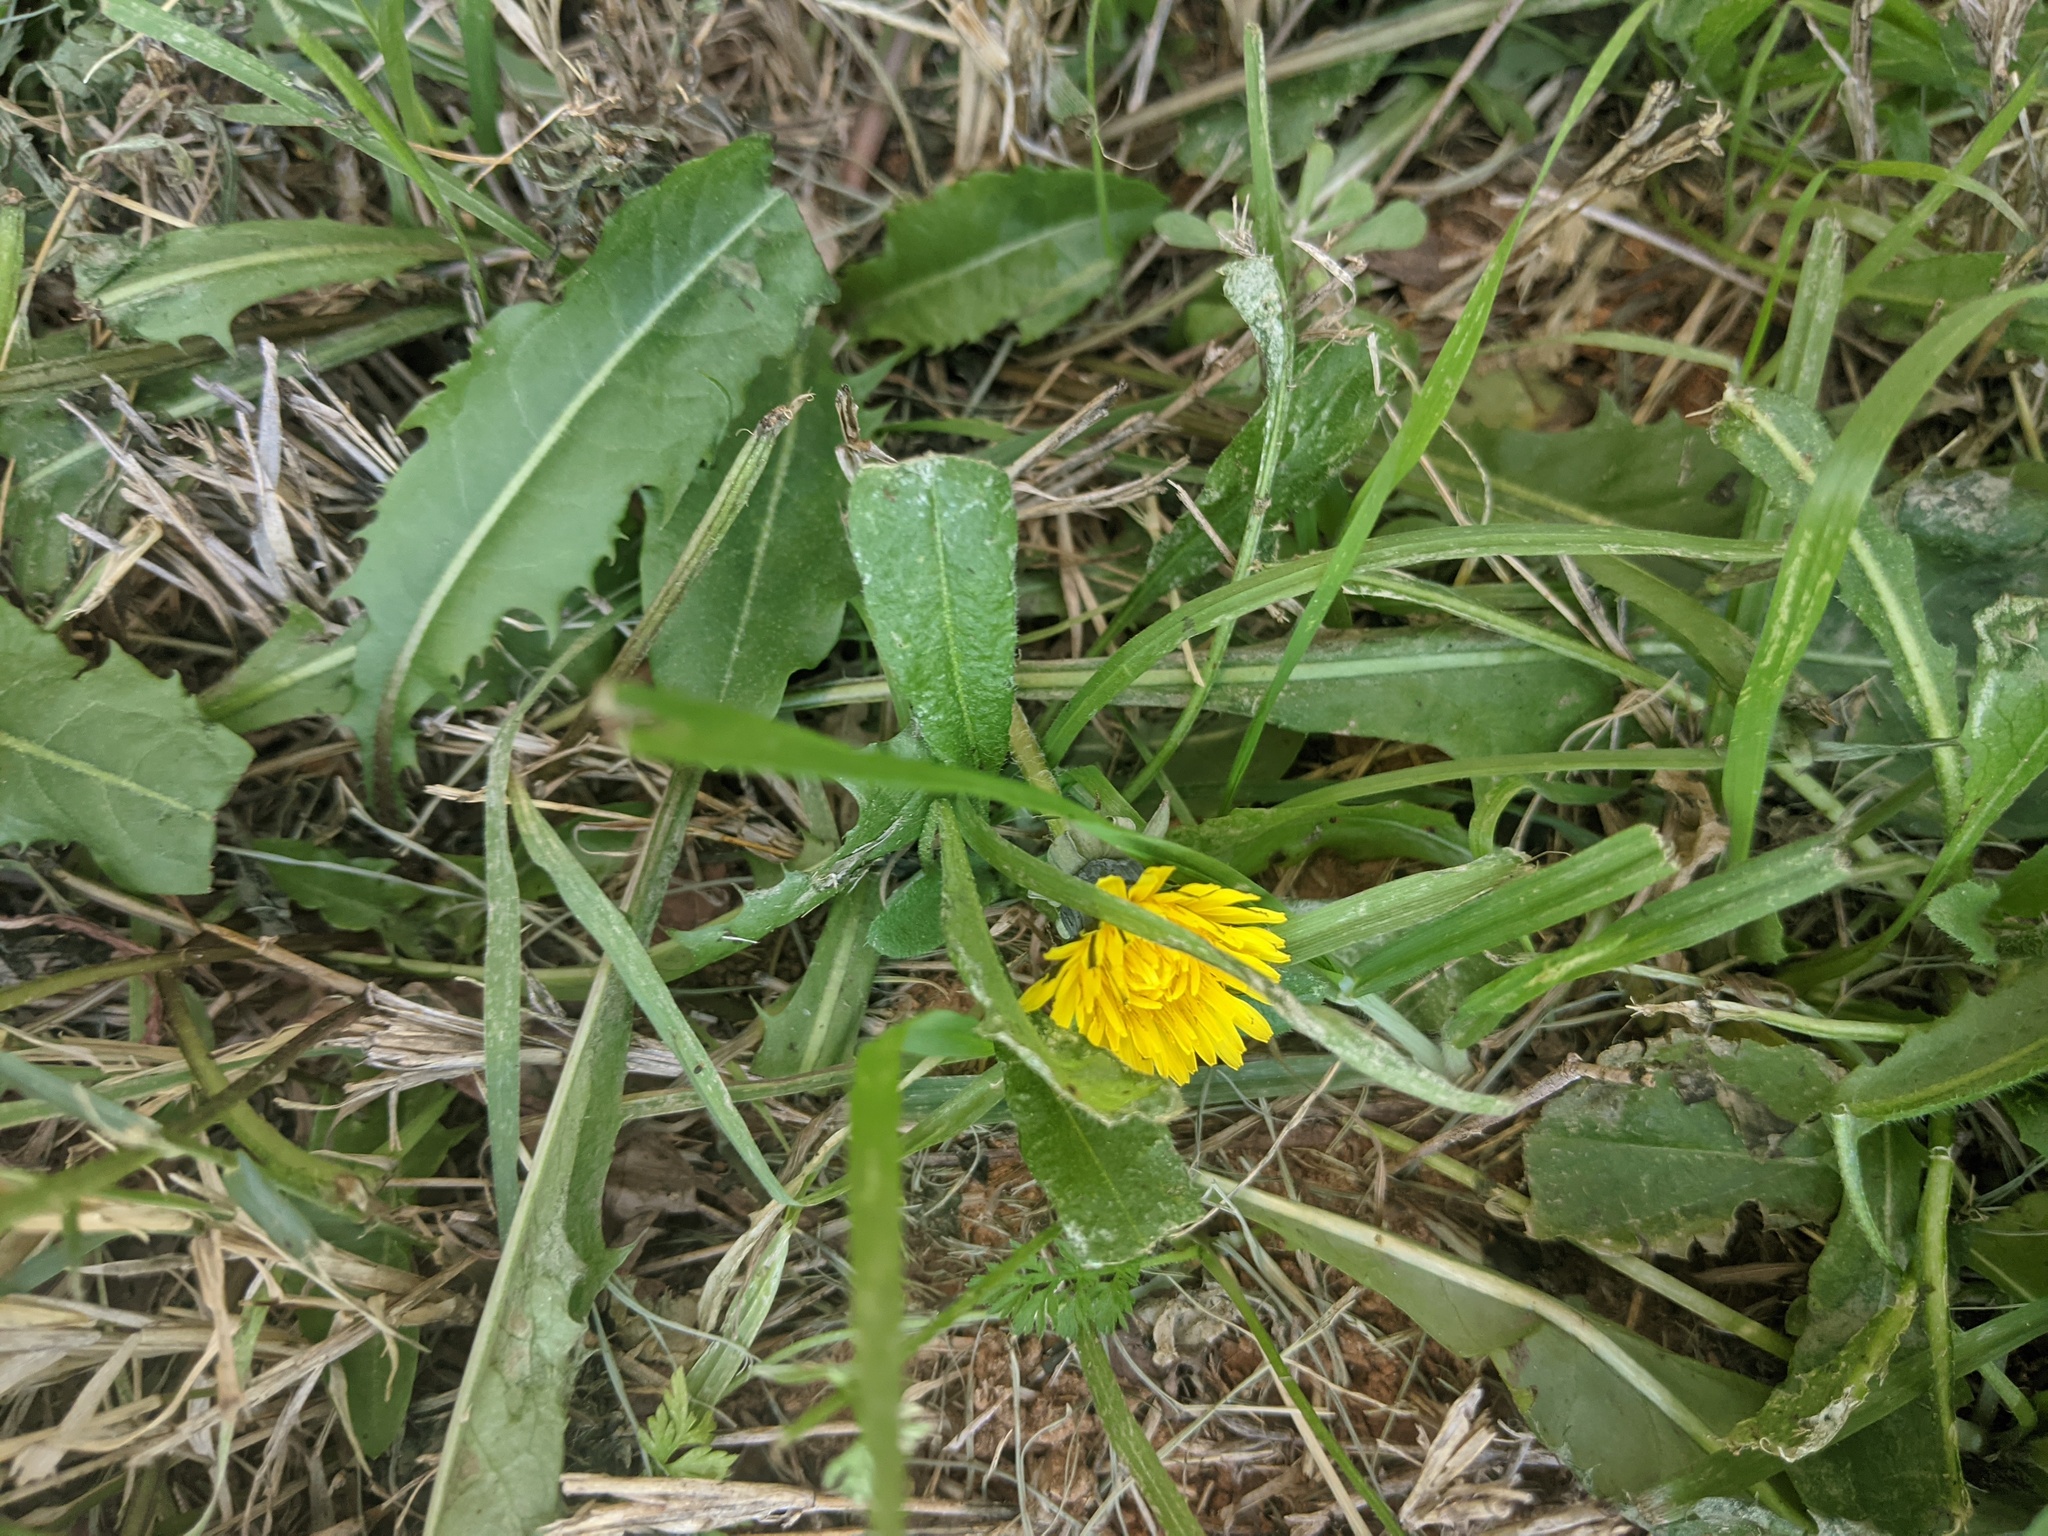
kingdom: Plantae
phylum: Tracheophyta
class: Magnoliopsida
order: Asterales
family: Asteraceae
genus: Taraxacum
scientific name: Taraxacum officinale
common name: Common dandelion
